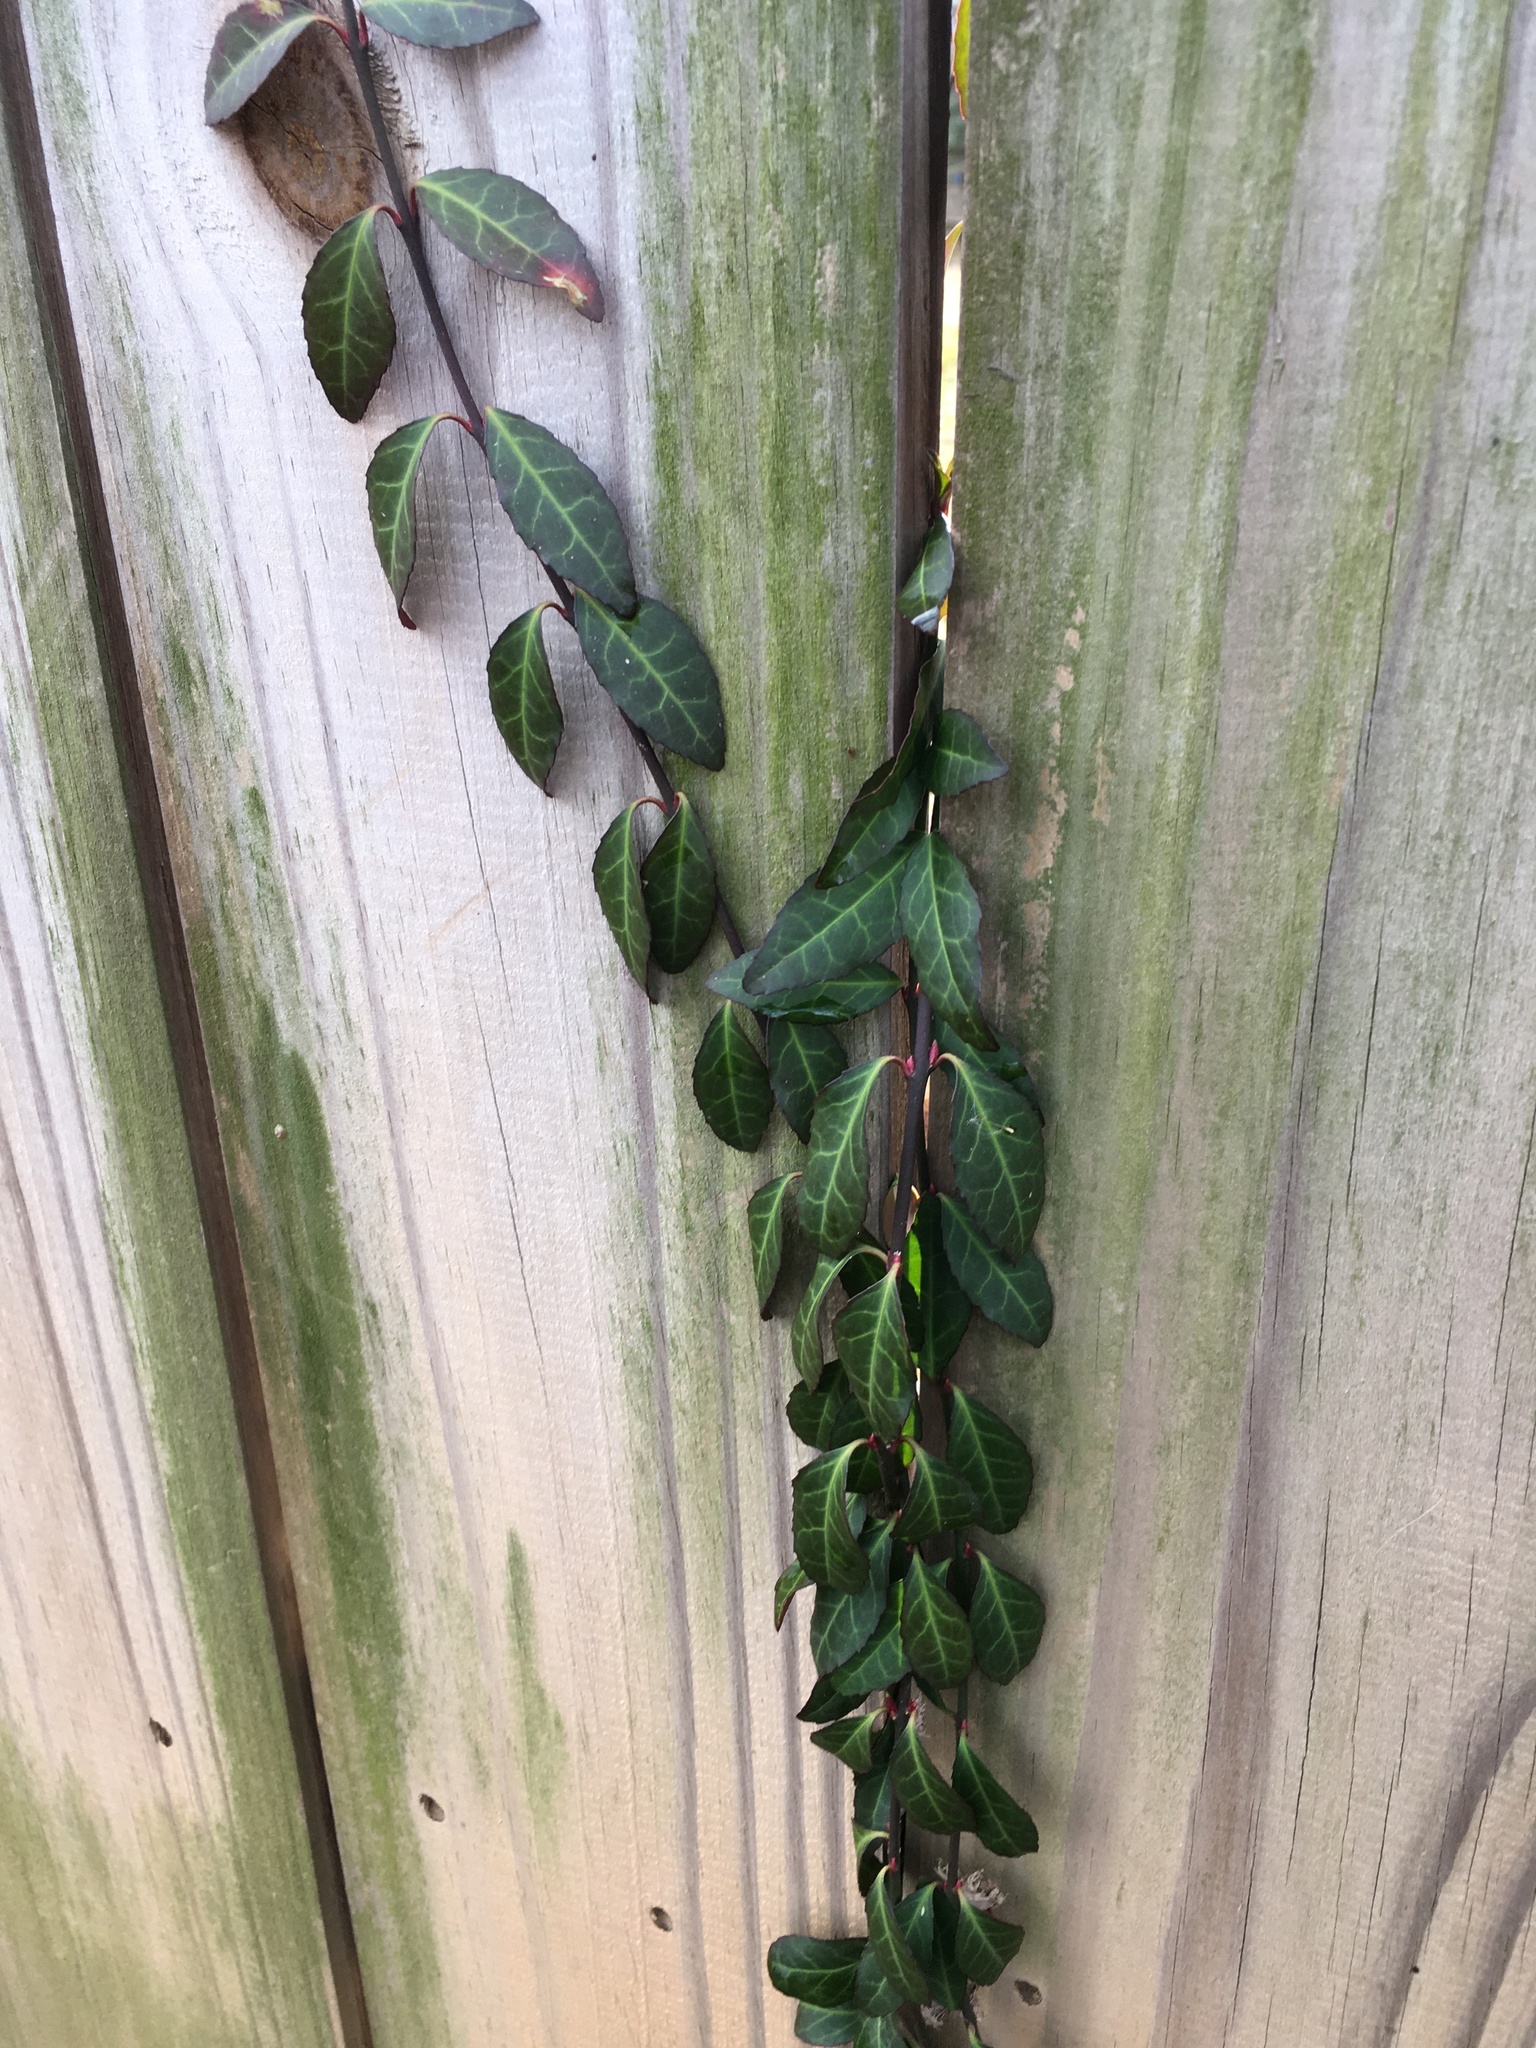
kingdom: Plantae
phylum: Tracheophyta
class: Magnoliopsida
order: Celastrales
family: Celastraceae
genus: Euonymus
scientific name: Euonymus fortunei
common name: Climbing euonymus
